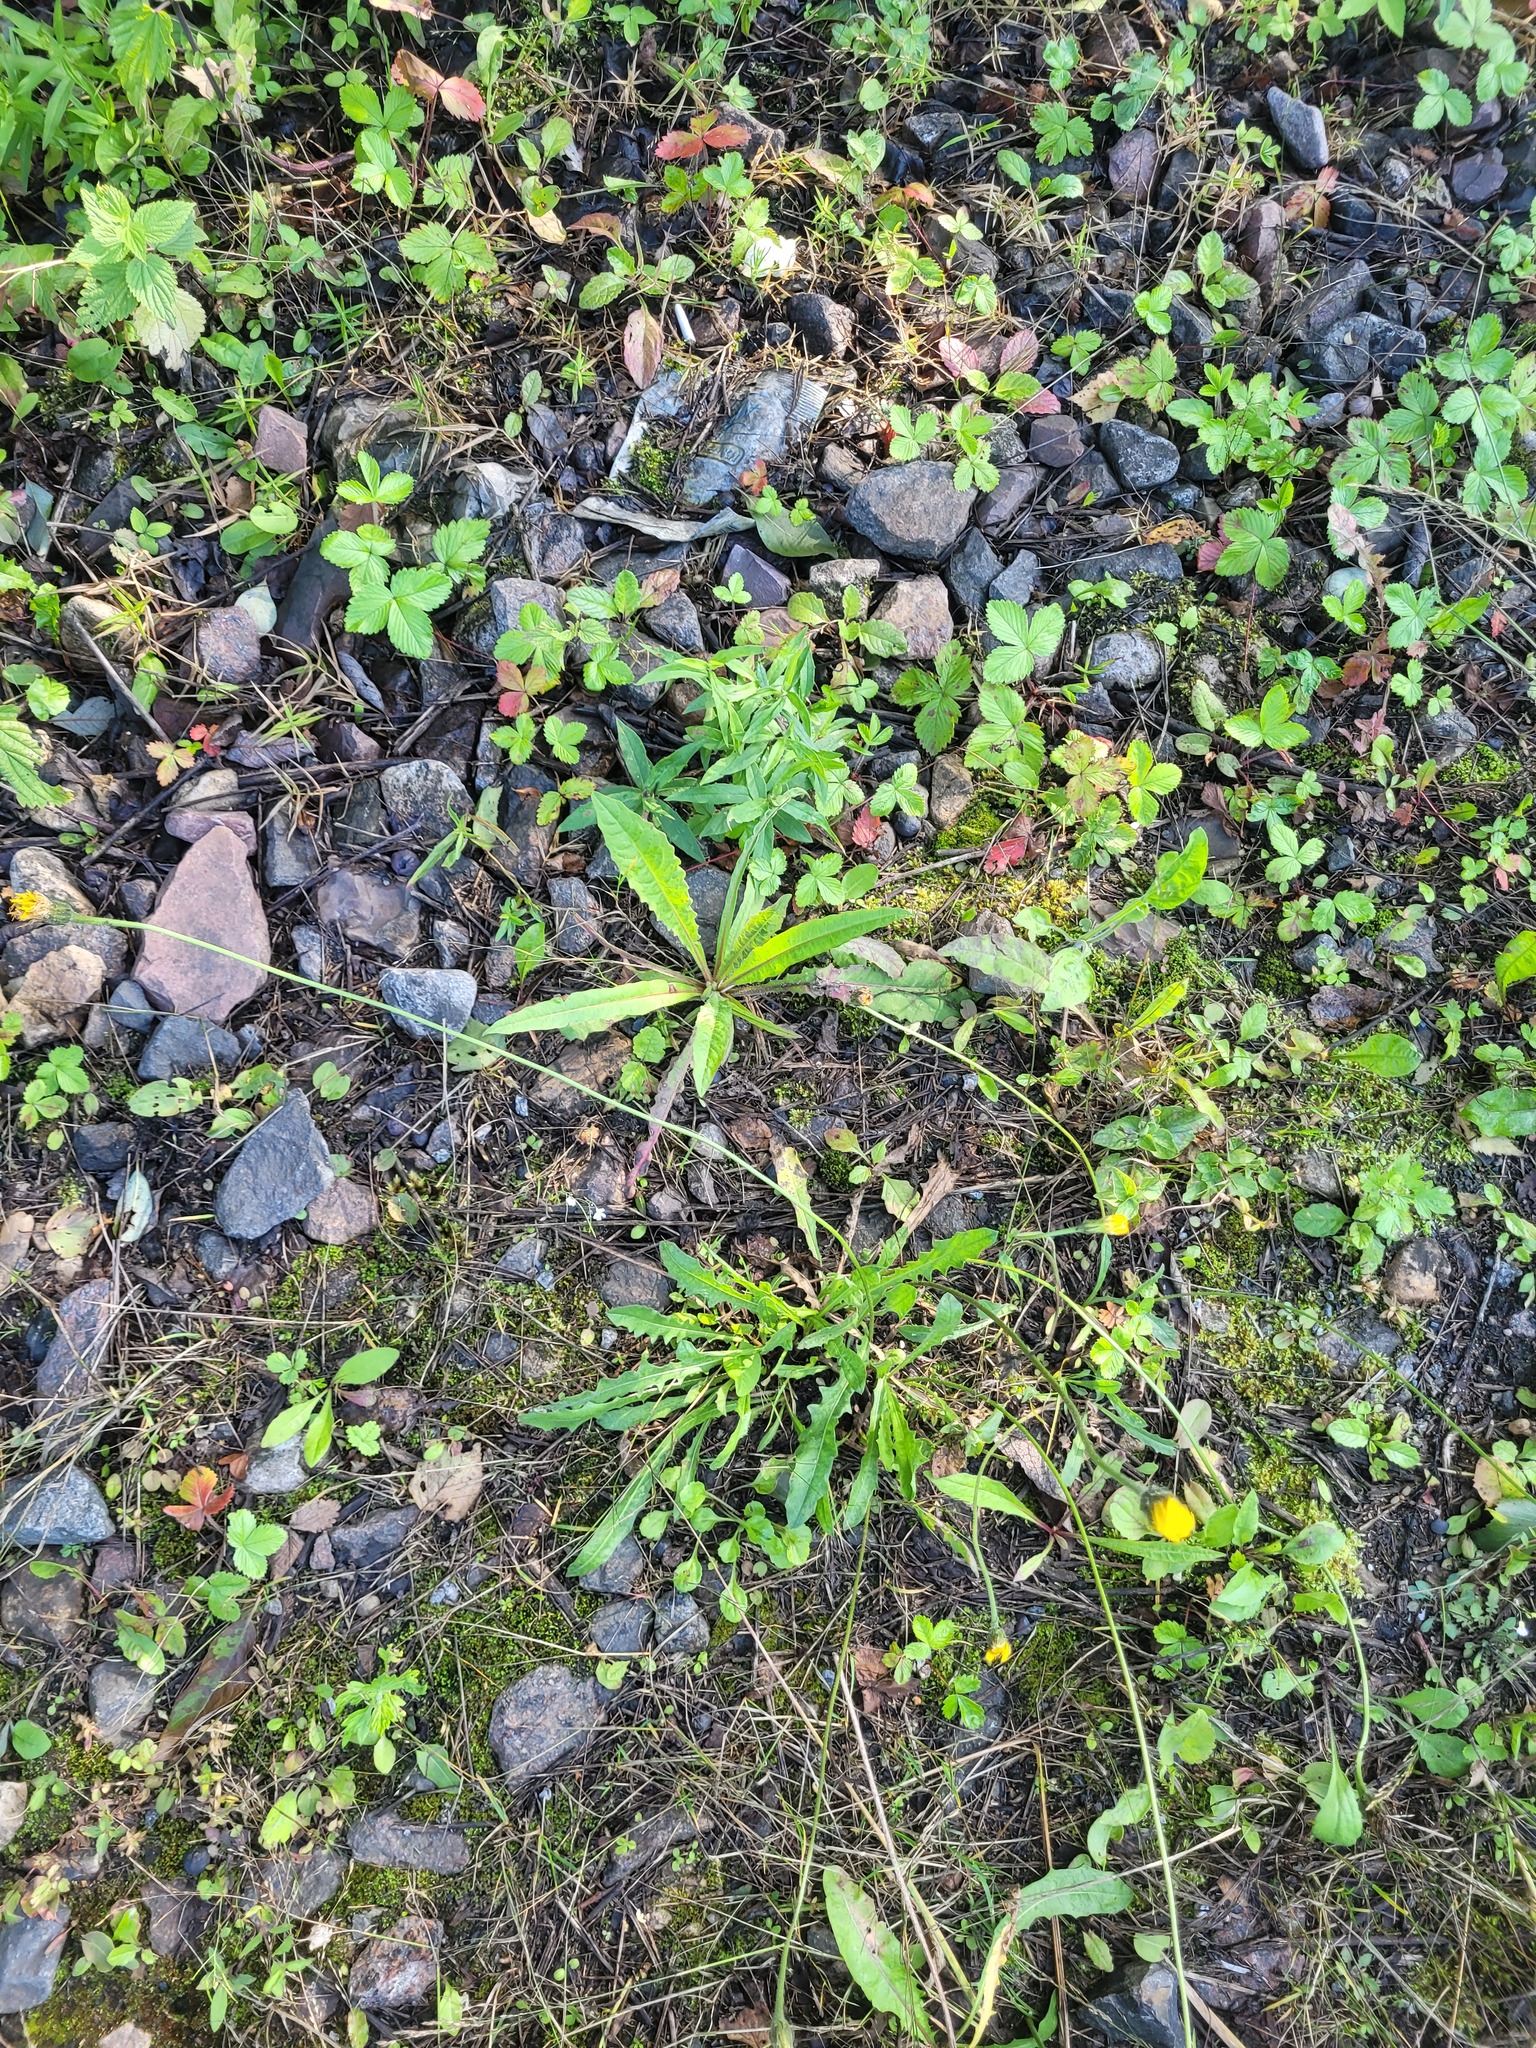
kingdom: Plantae
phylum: Tracheophyta
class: Magnoliopsida
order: Asterales
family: Asteraceae
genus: Leontodon
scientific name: Leontodon hispidus
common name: Rough hawkbit
